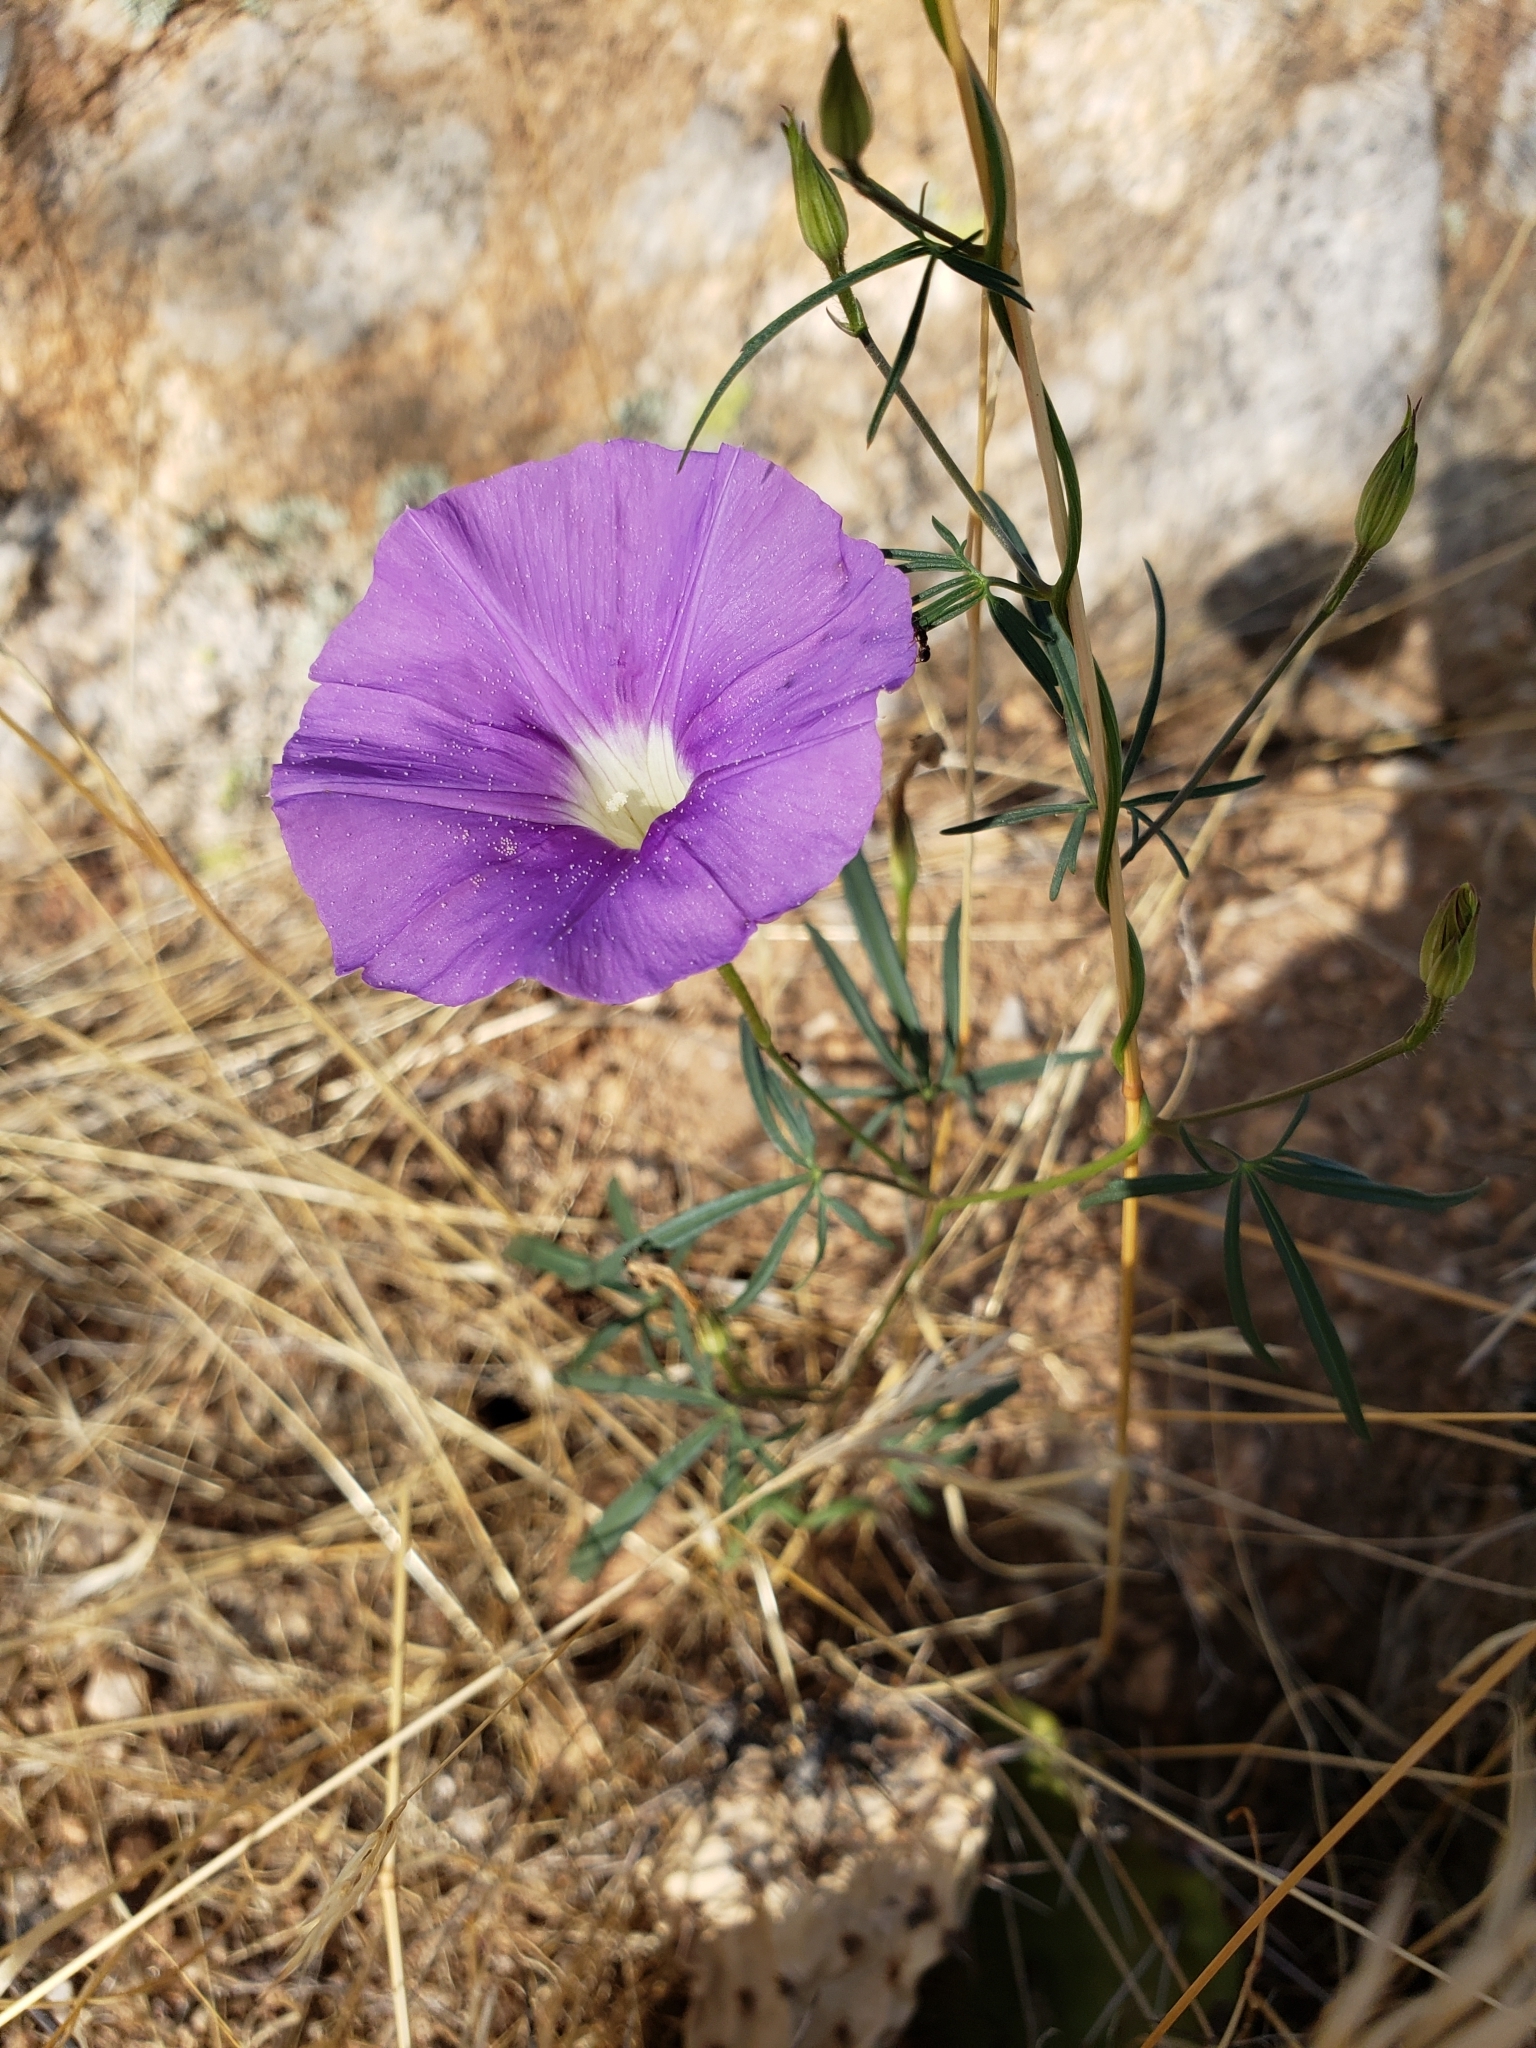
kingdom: Plantae
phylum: Tracheophyta
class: Magnoliopsida
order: Solanales
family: Convolvulaceae
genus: Ipomoea
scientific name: Ipomoea ternifolia
